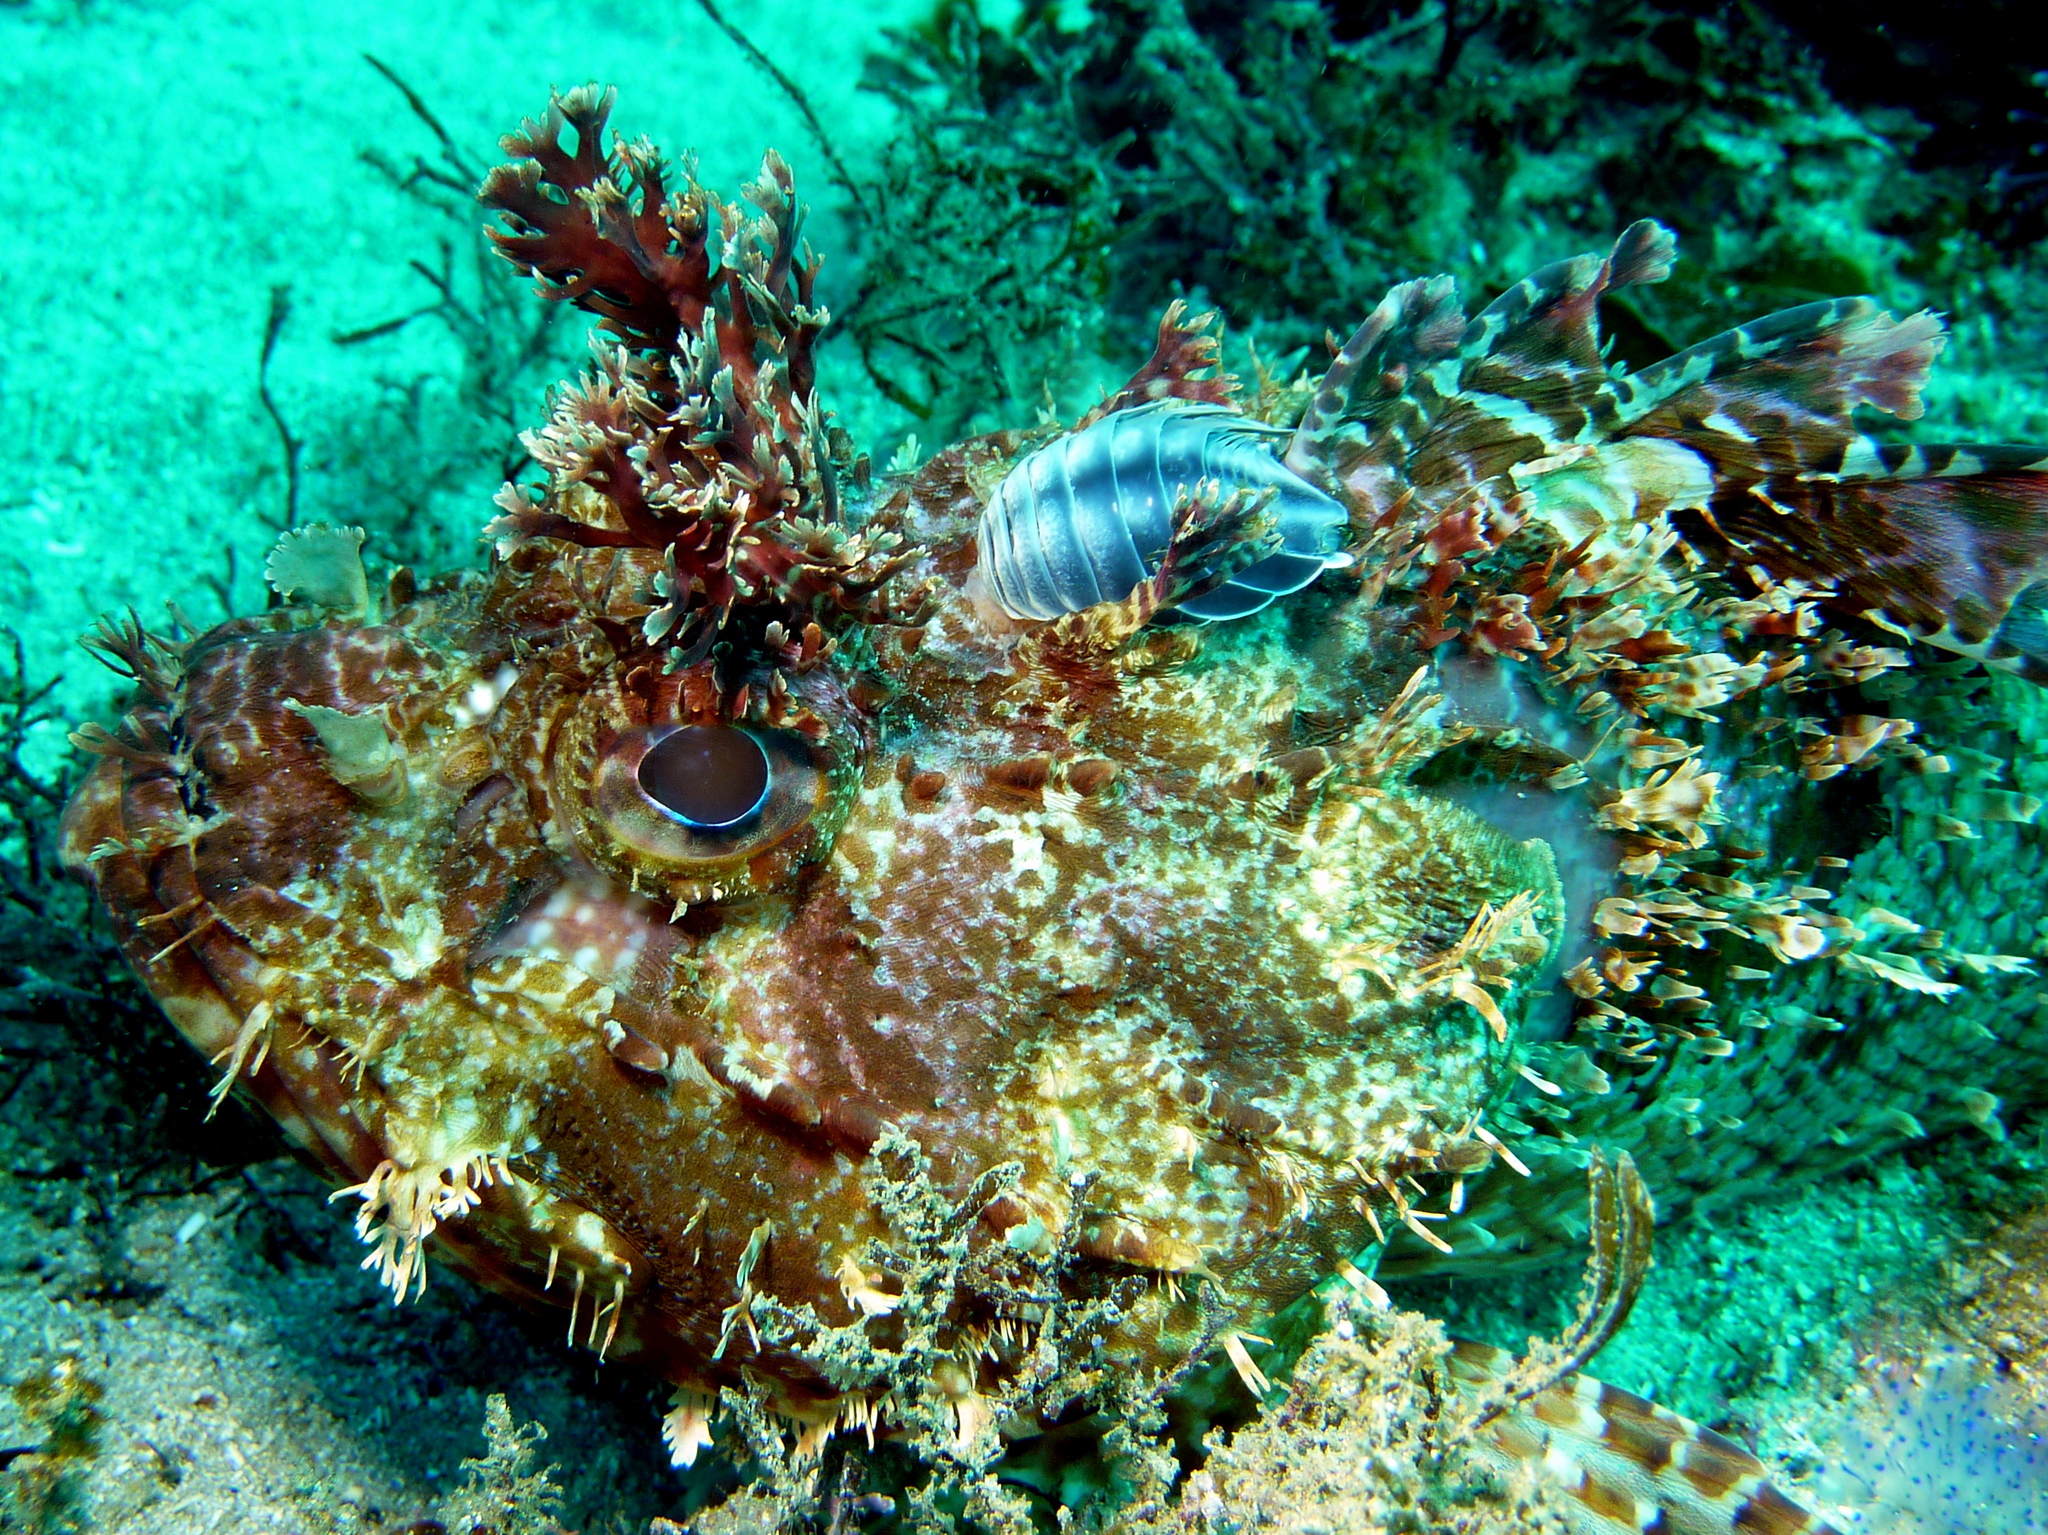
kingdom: Animalia
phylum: Arthropoda
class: Malacostraca
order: Isopoda
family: Cymothoidae
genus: Creniola
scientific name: Creniola laticauda
